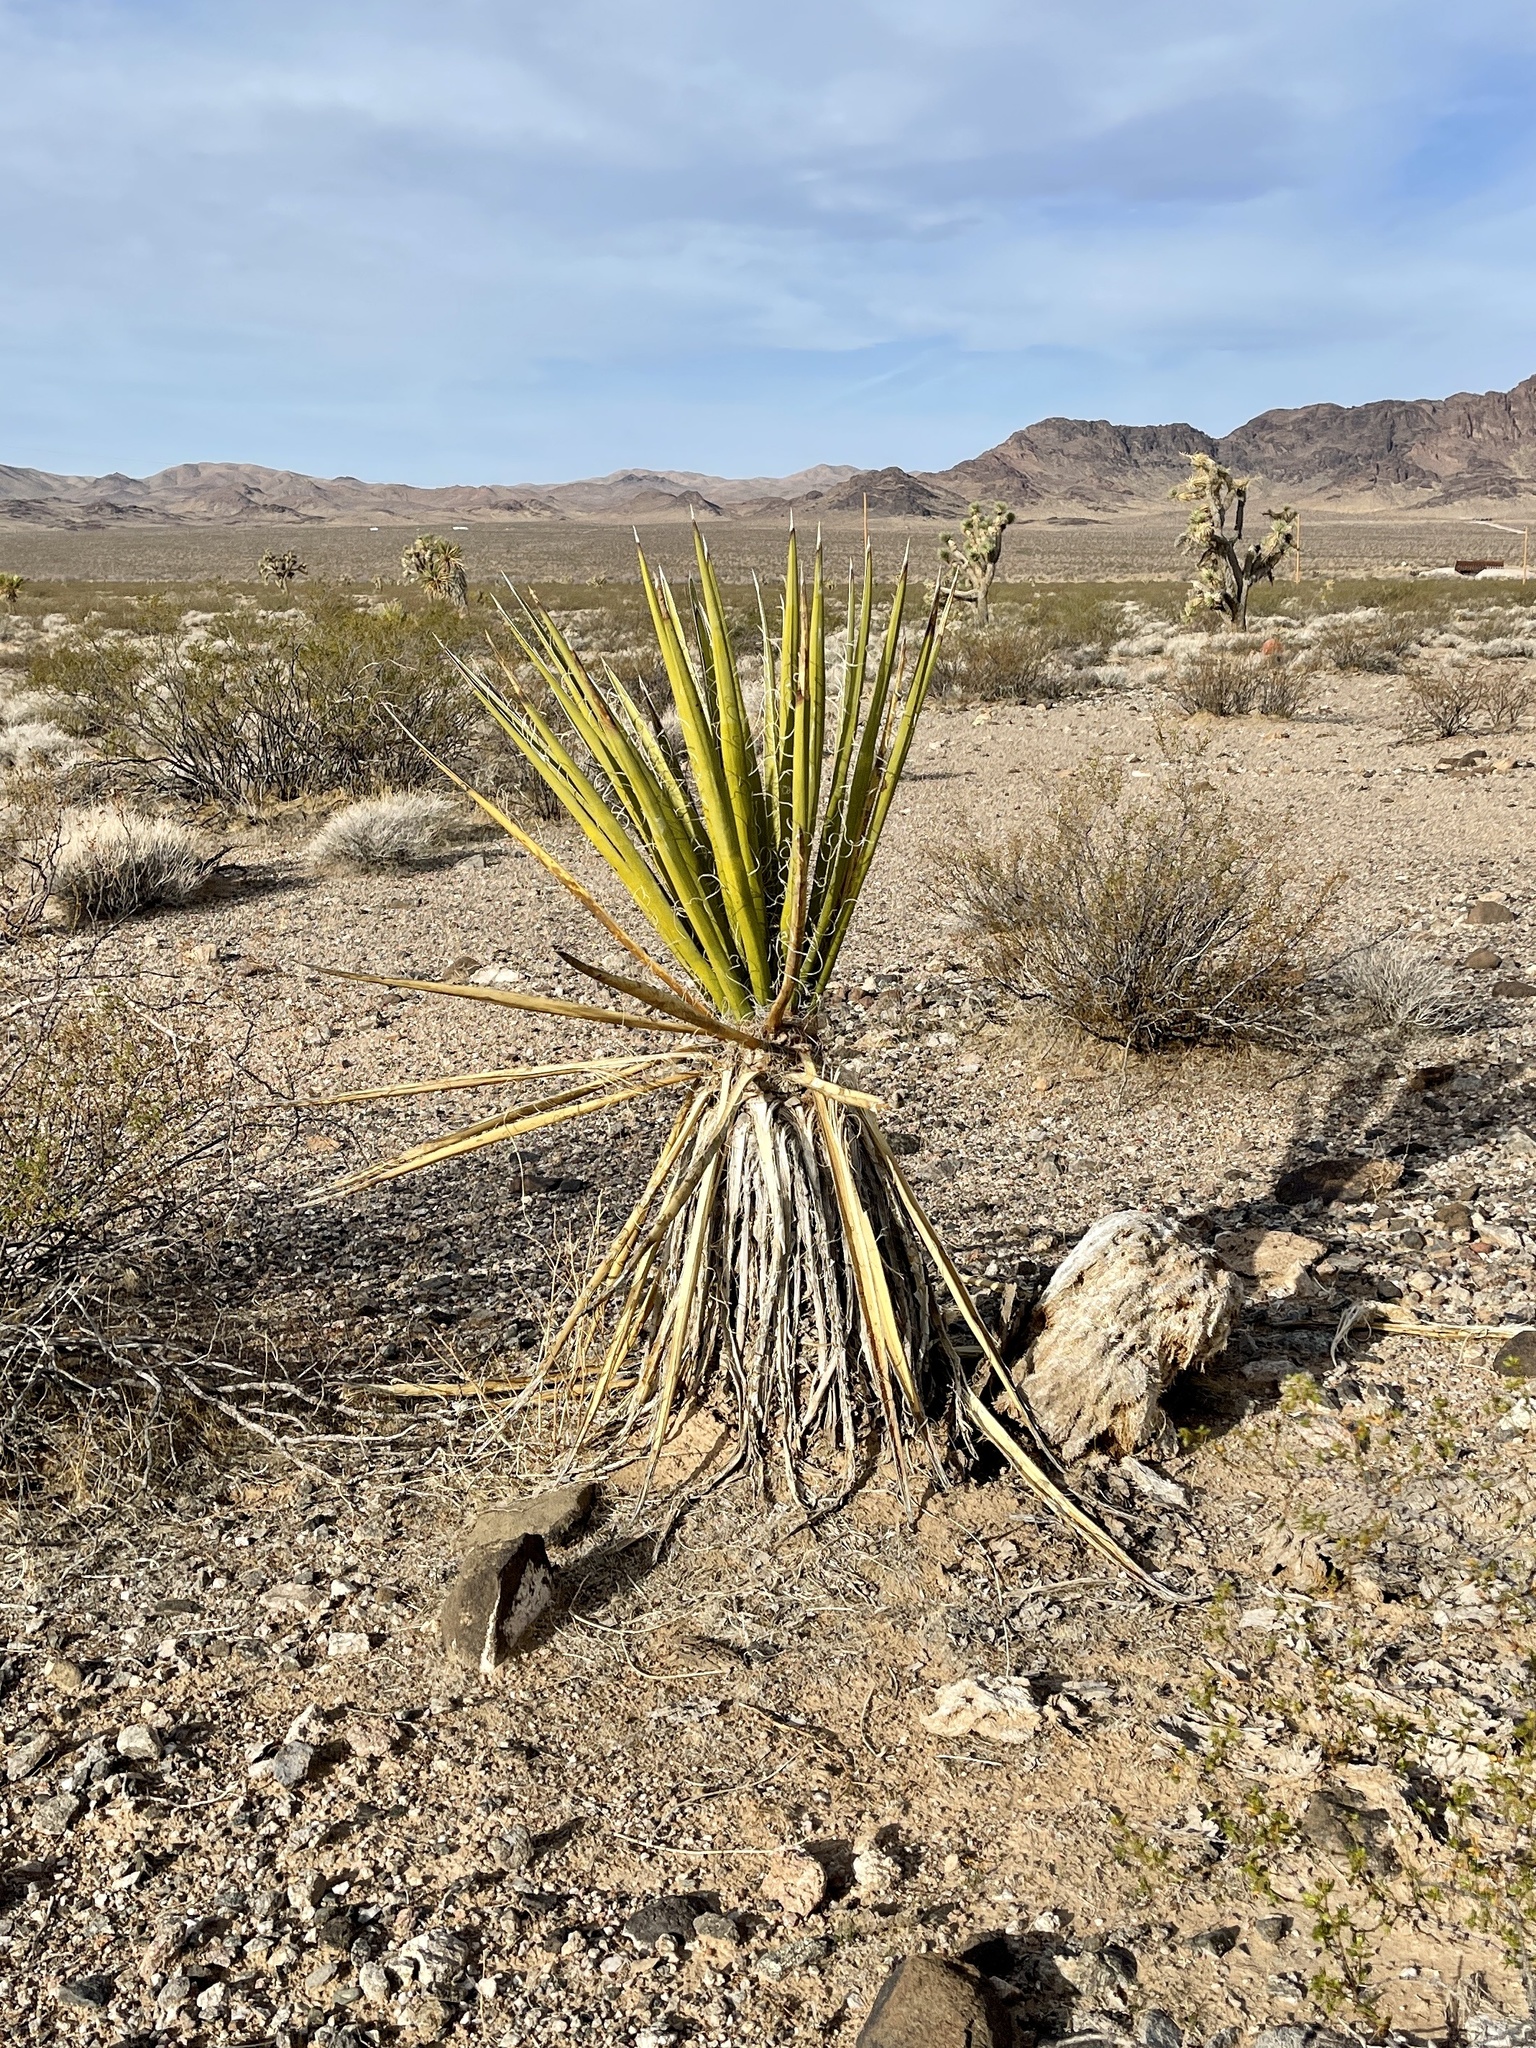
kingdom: Plantae
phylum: Tracheophyta
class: Liliopsida
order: Asparagales
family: Asparagaceae
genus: Yucca
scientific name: Yucca schidigera
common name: Mojave yucca
